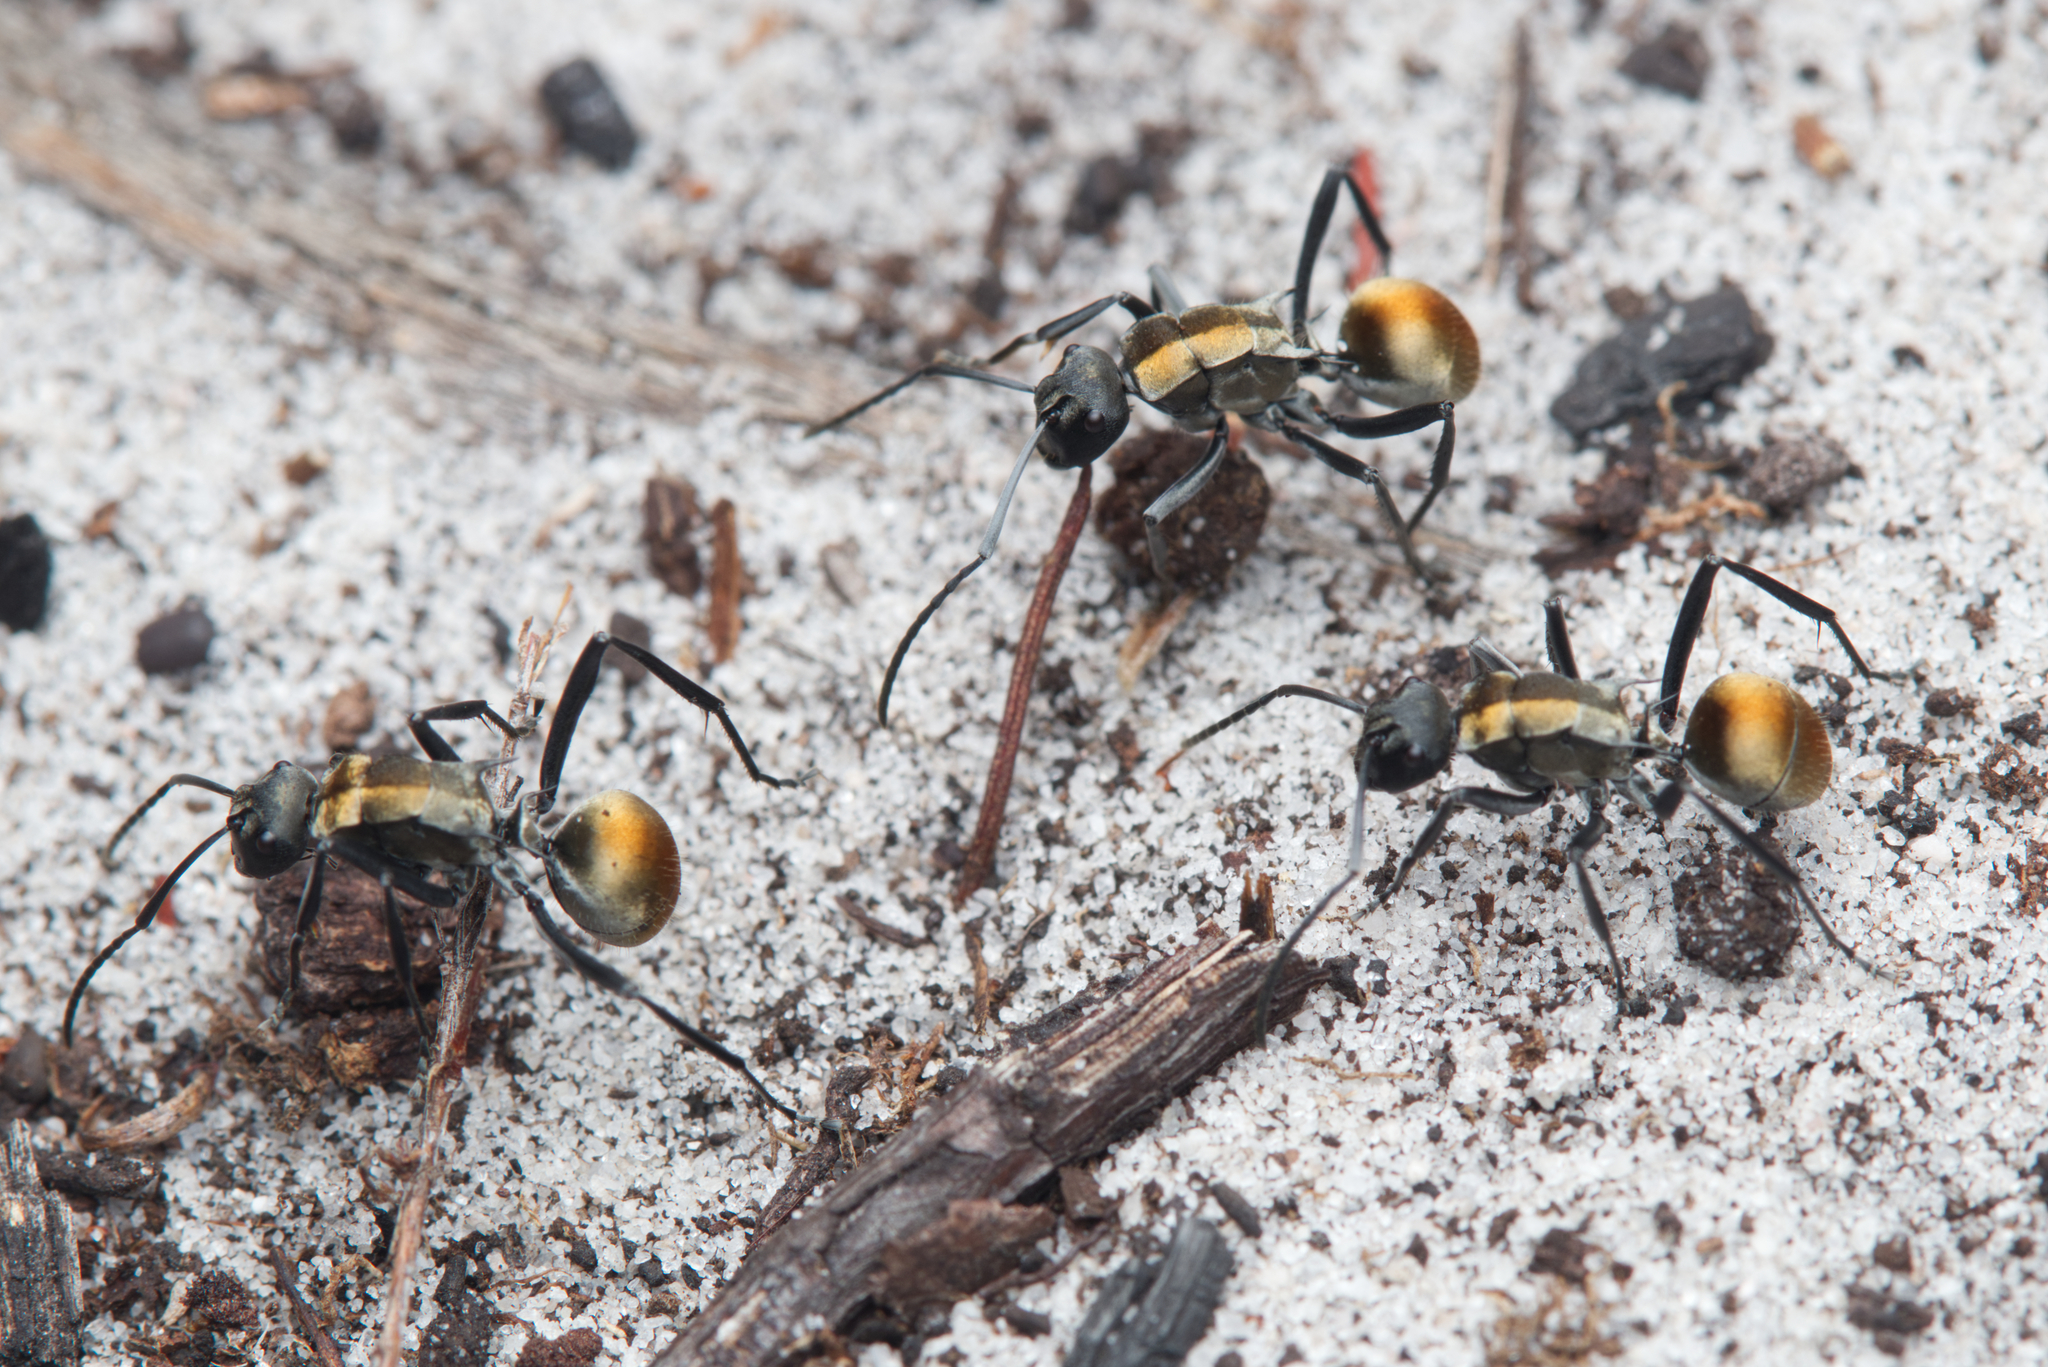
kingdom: Animalia
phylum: Arthropoda
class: Insecta
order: Hymenoptera
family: Formicidae
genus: Polyrhachis
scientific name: Polyrhachis ammon
